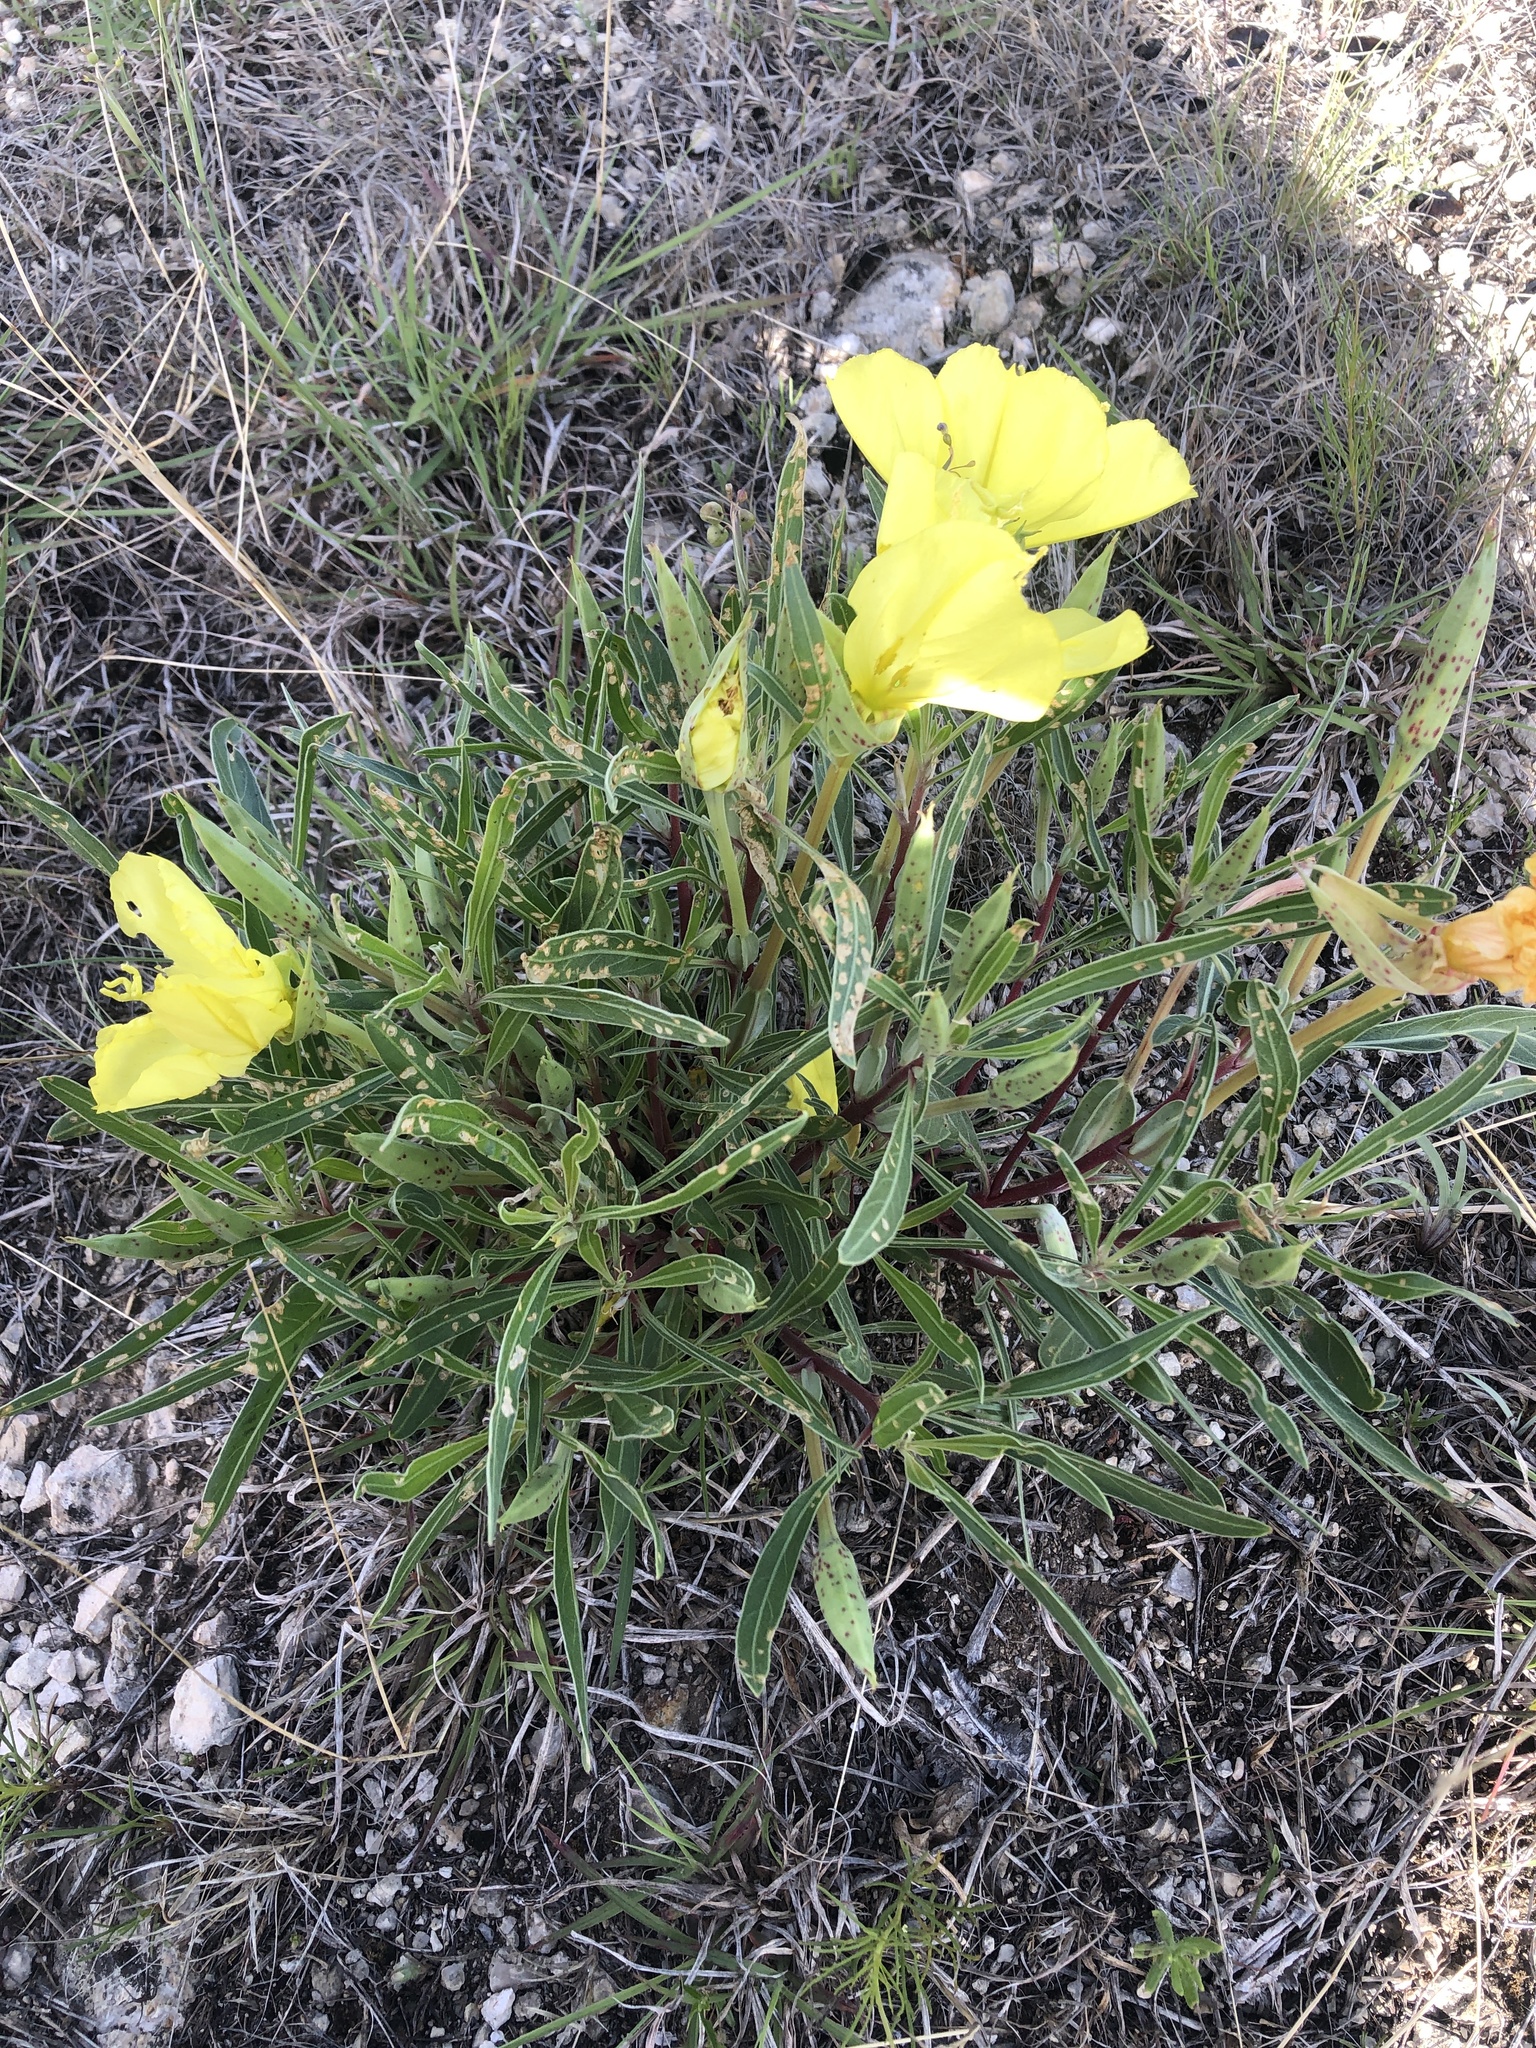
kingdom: Plantae
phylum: Tracheophyta
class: Magnoliopsida
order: Myrtales
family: Onagraceae
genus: Oenothera
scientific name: Oenothera macrocarpa
